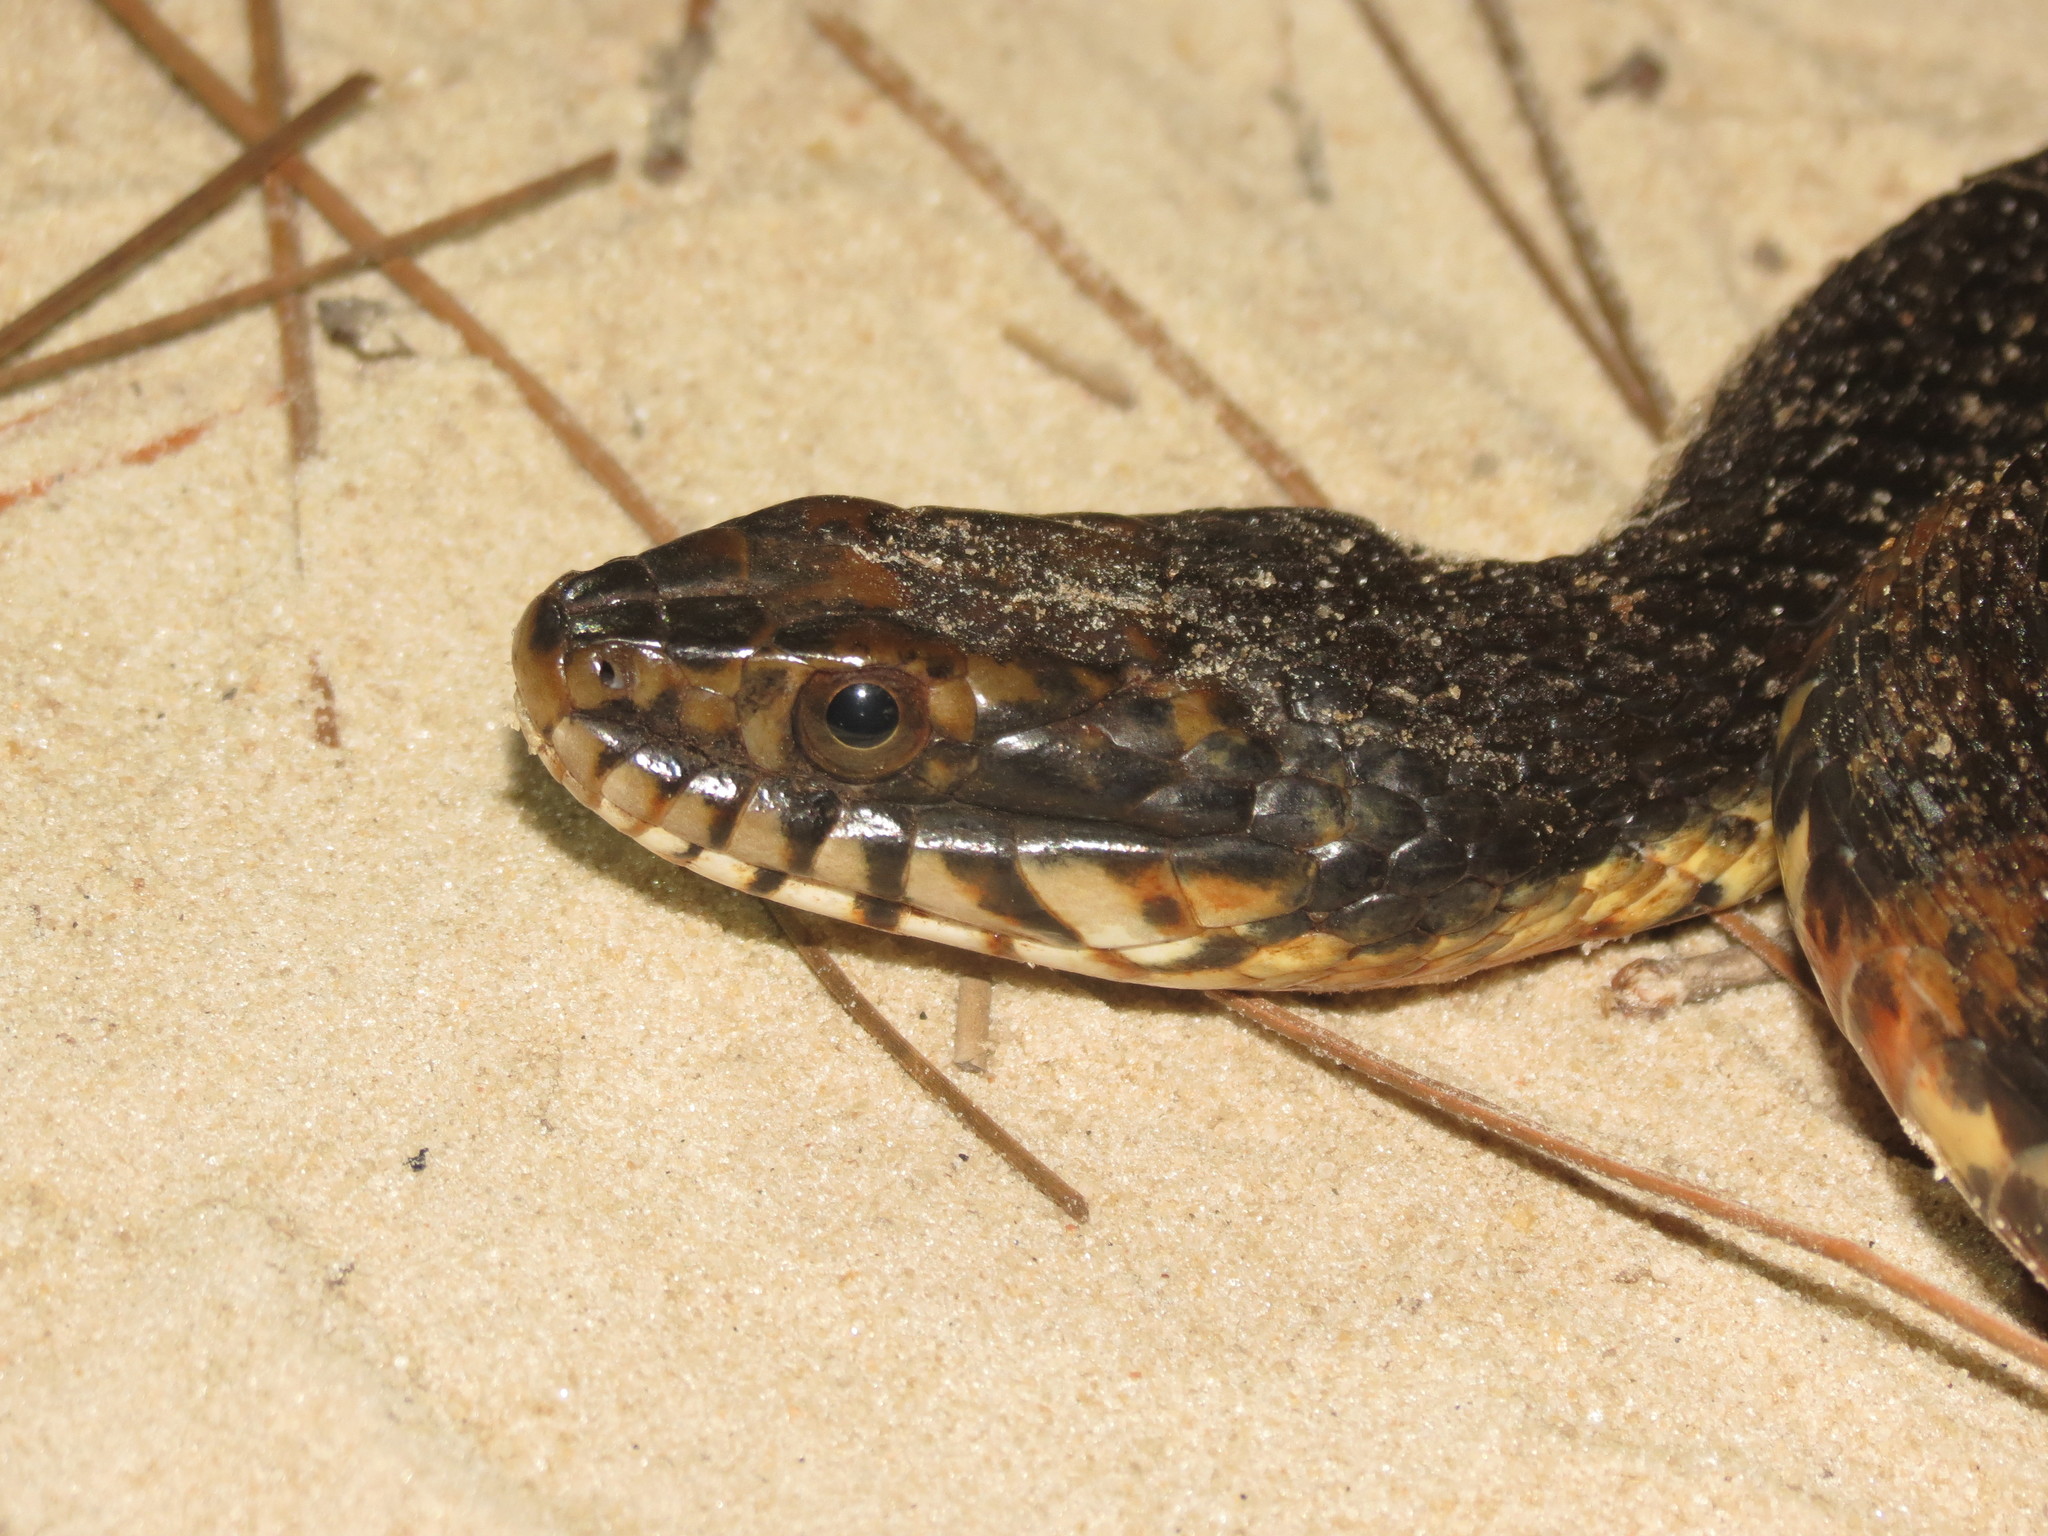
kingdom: Animalia
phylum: Chordata
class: Squamata
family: Colubridae
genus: Nerodia
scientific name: Nerodia fasciata
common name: Southern water snake
